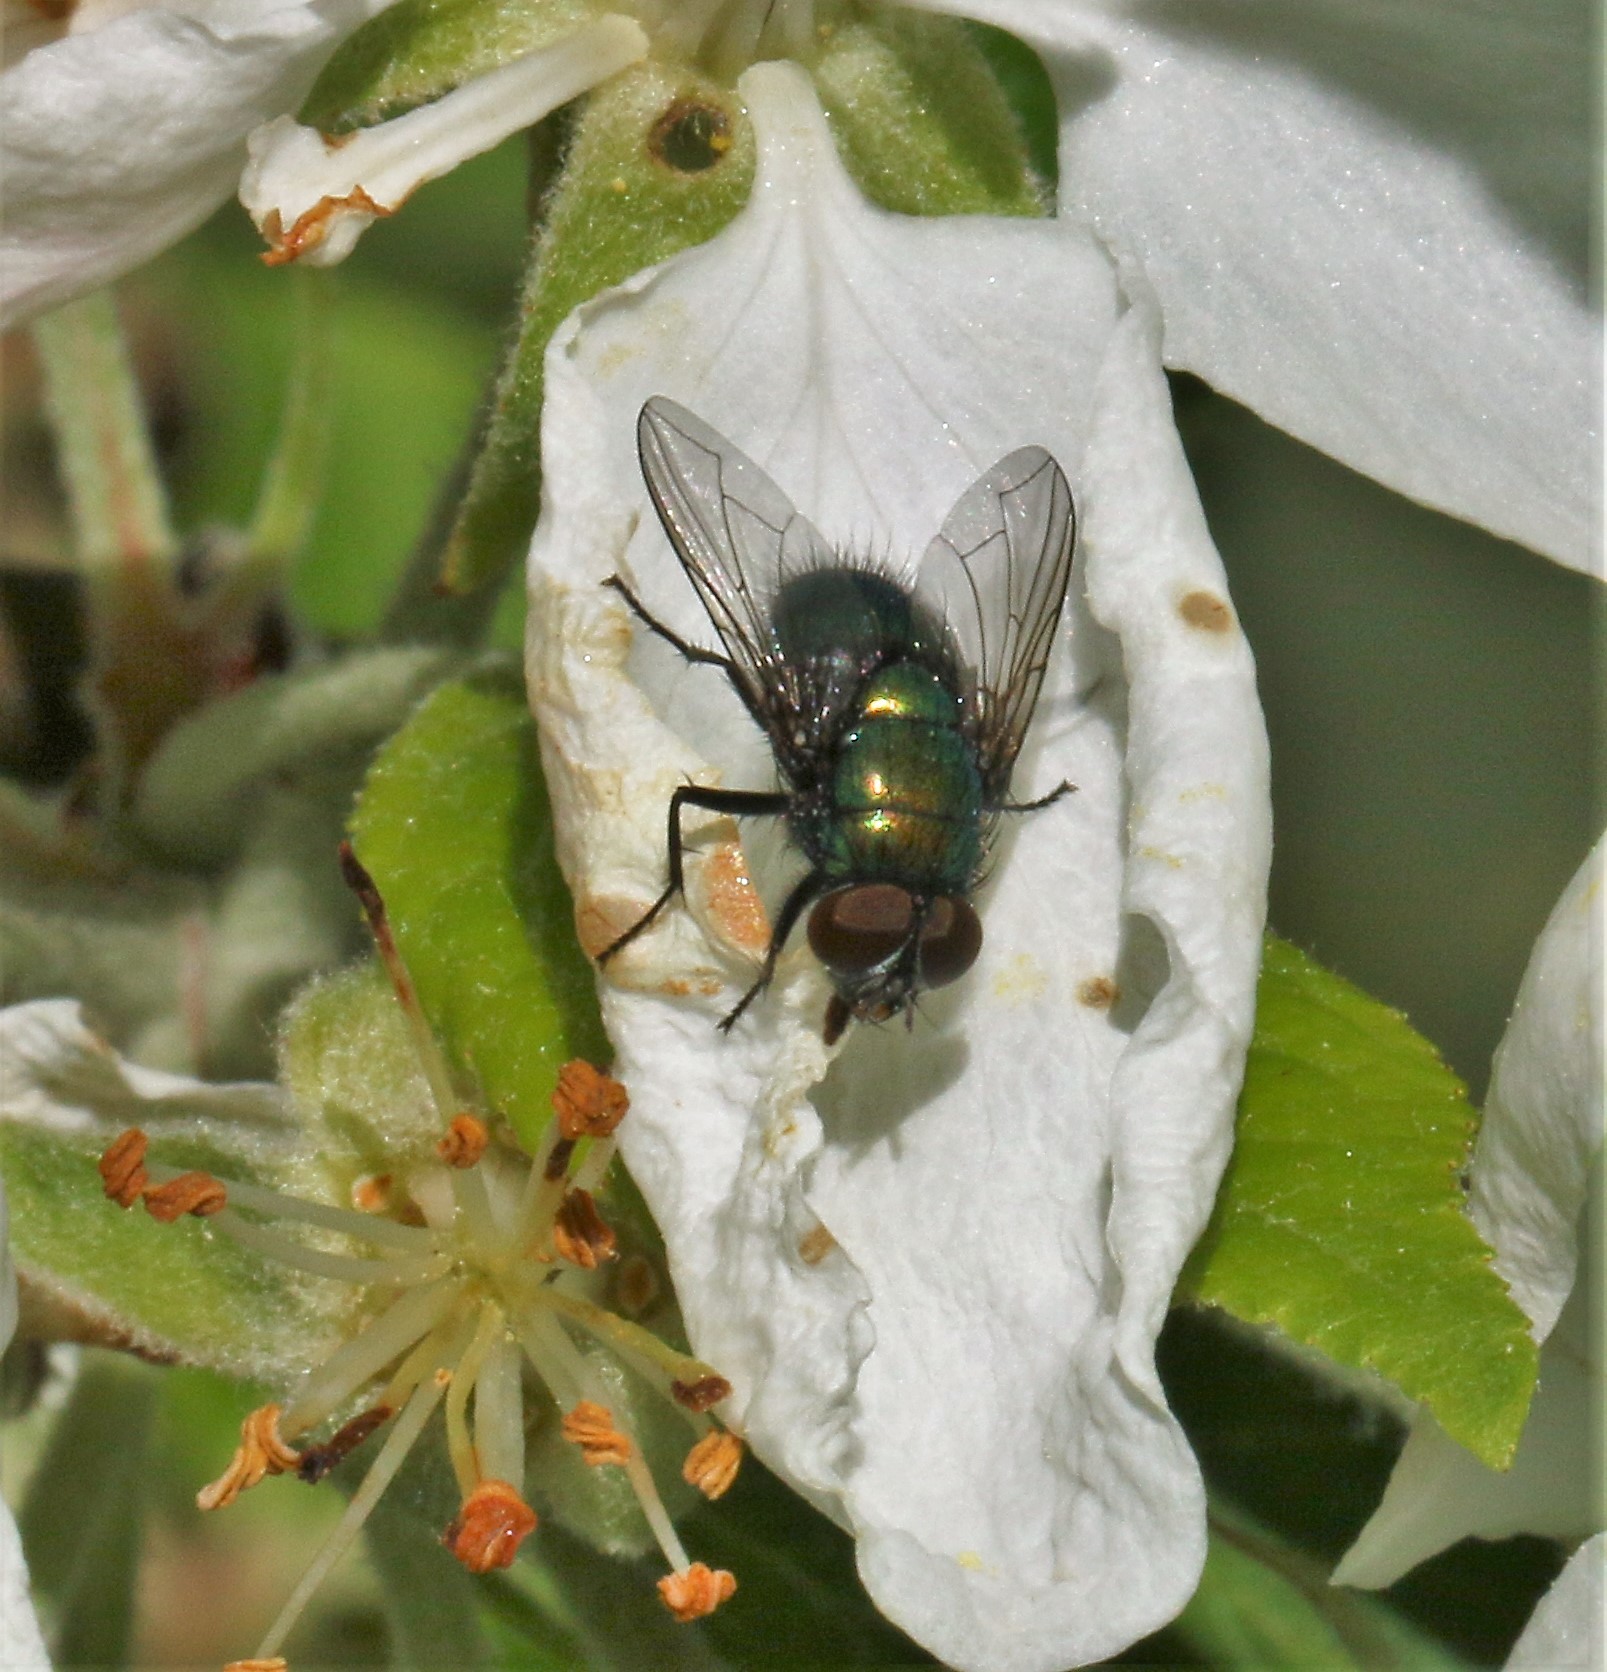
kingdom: Animalia
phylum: Arthropoda
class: Insecta
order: Diptera
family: Calliphoridae
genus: Lucilia
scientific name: Lucilia illustris
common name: Illustrious greenbottle
